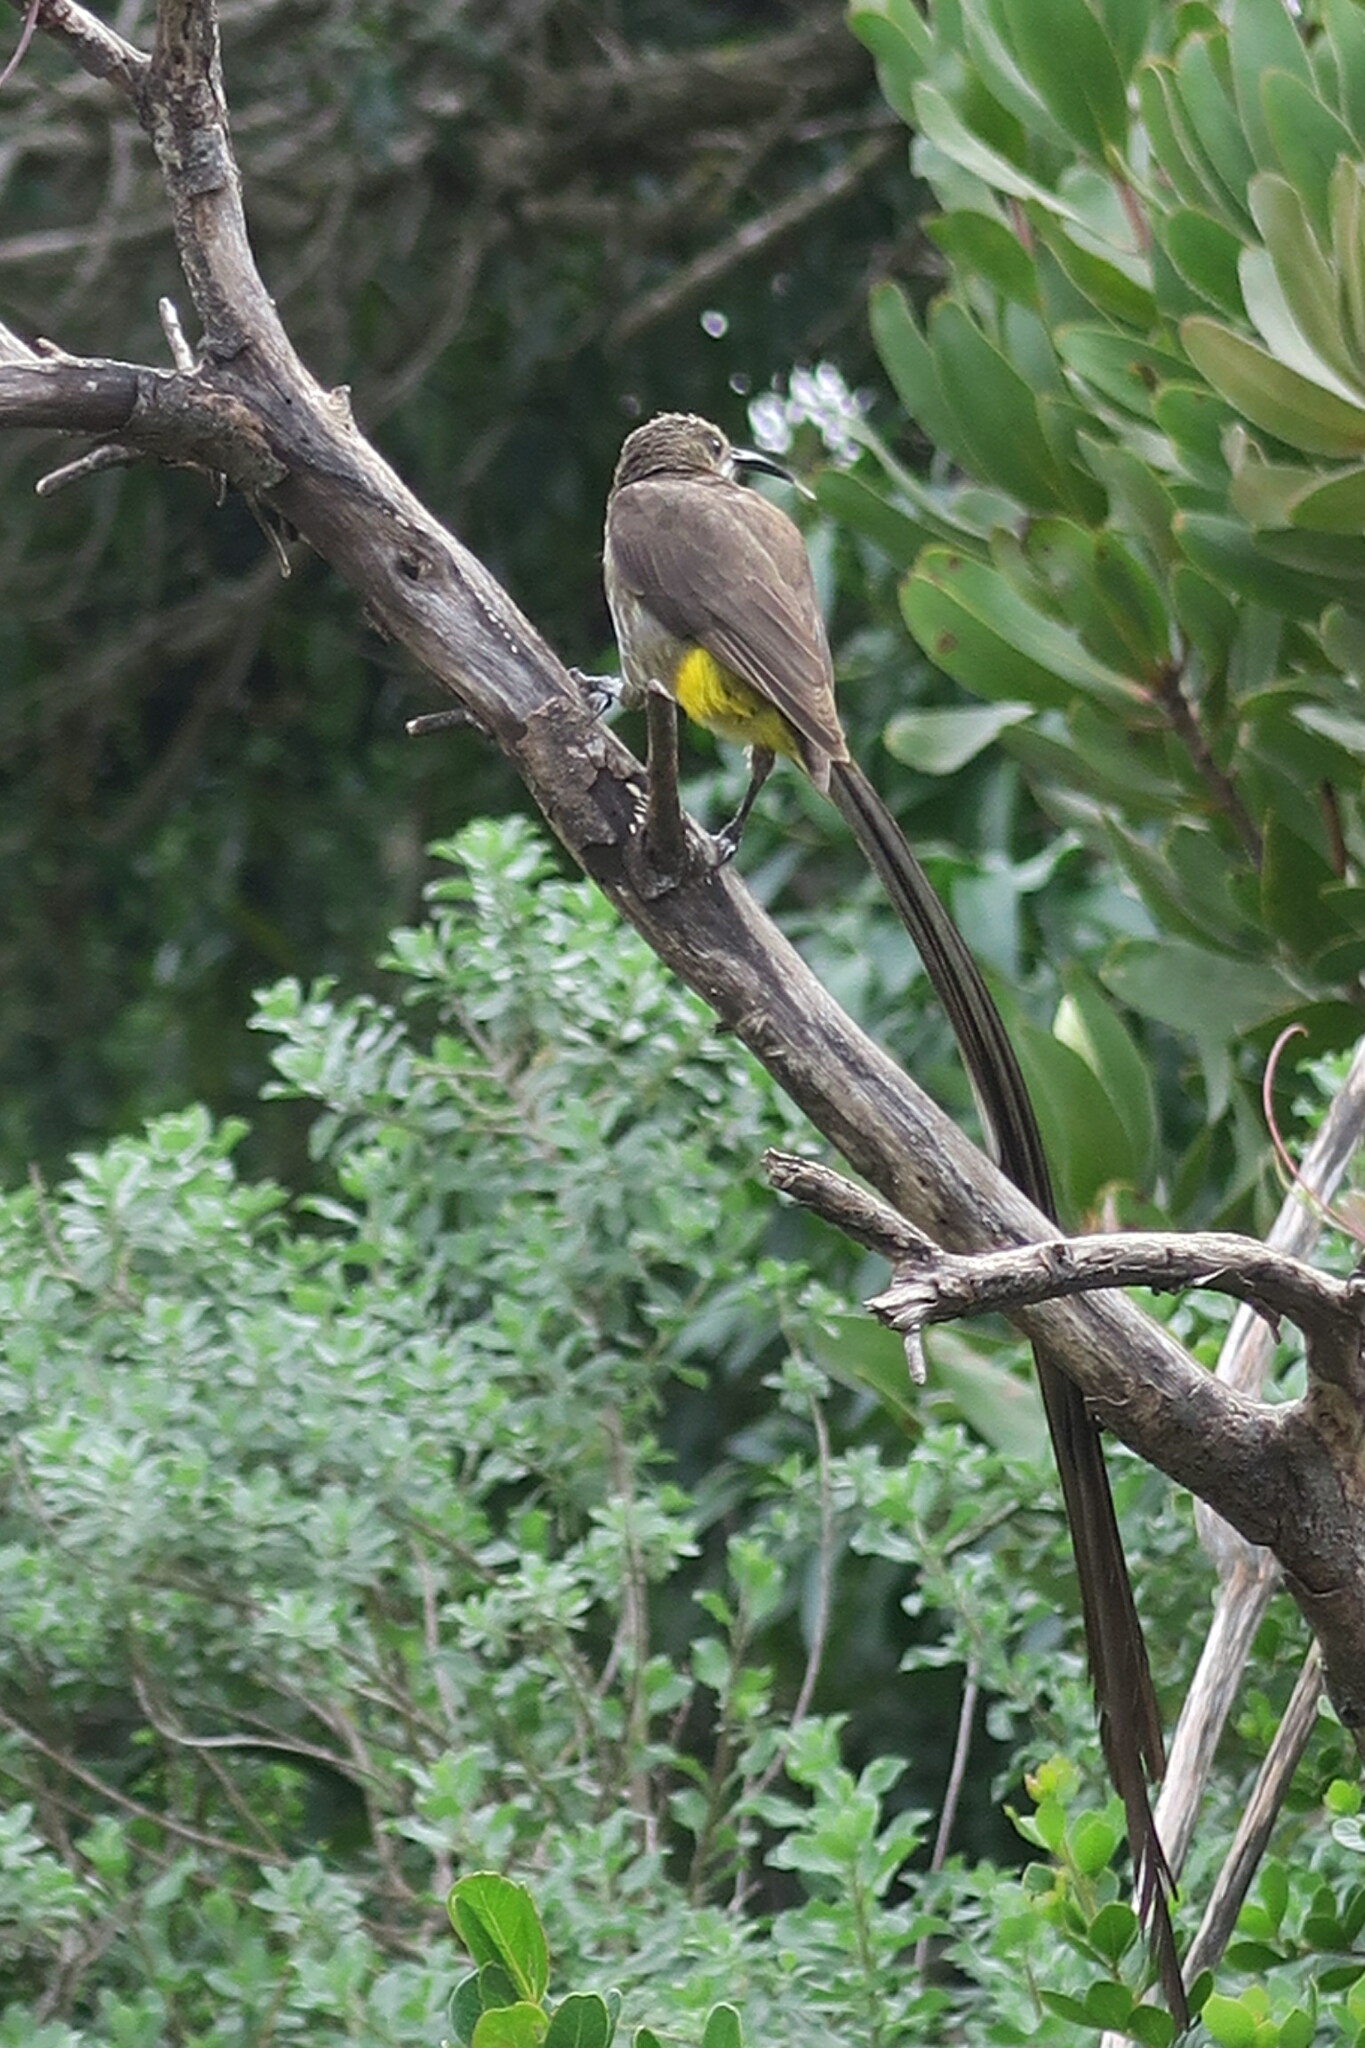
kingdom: Animalia
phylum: Chordata
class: Aves
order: Passeriformes
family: Promeropidae
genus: Promerops
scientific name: Promerops cafer
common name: Cape sugarbird
